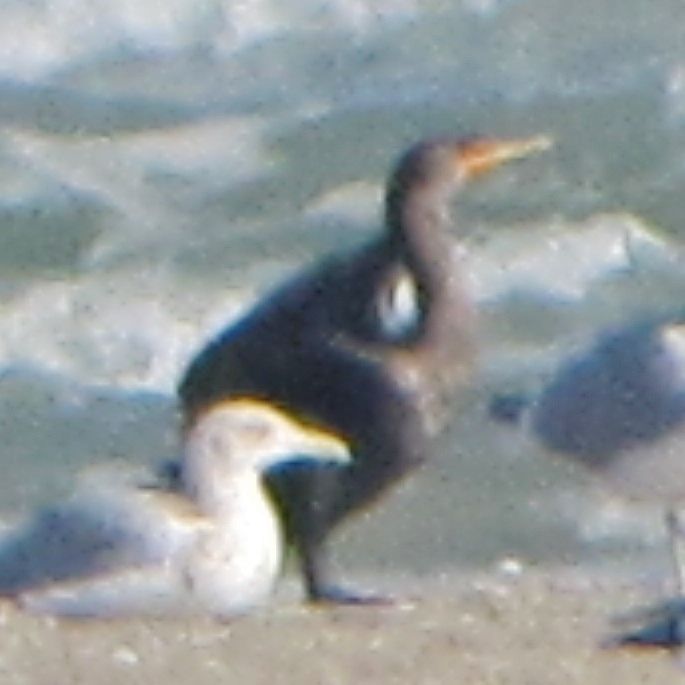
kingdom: Animalia
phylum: Chordata
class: Aves
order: Suliformes
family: Phalacrocoracidae
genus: Phalacrocorax
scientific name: Phalacrocorax auritus
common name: Double-crested cormorant
